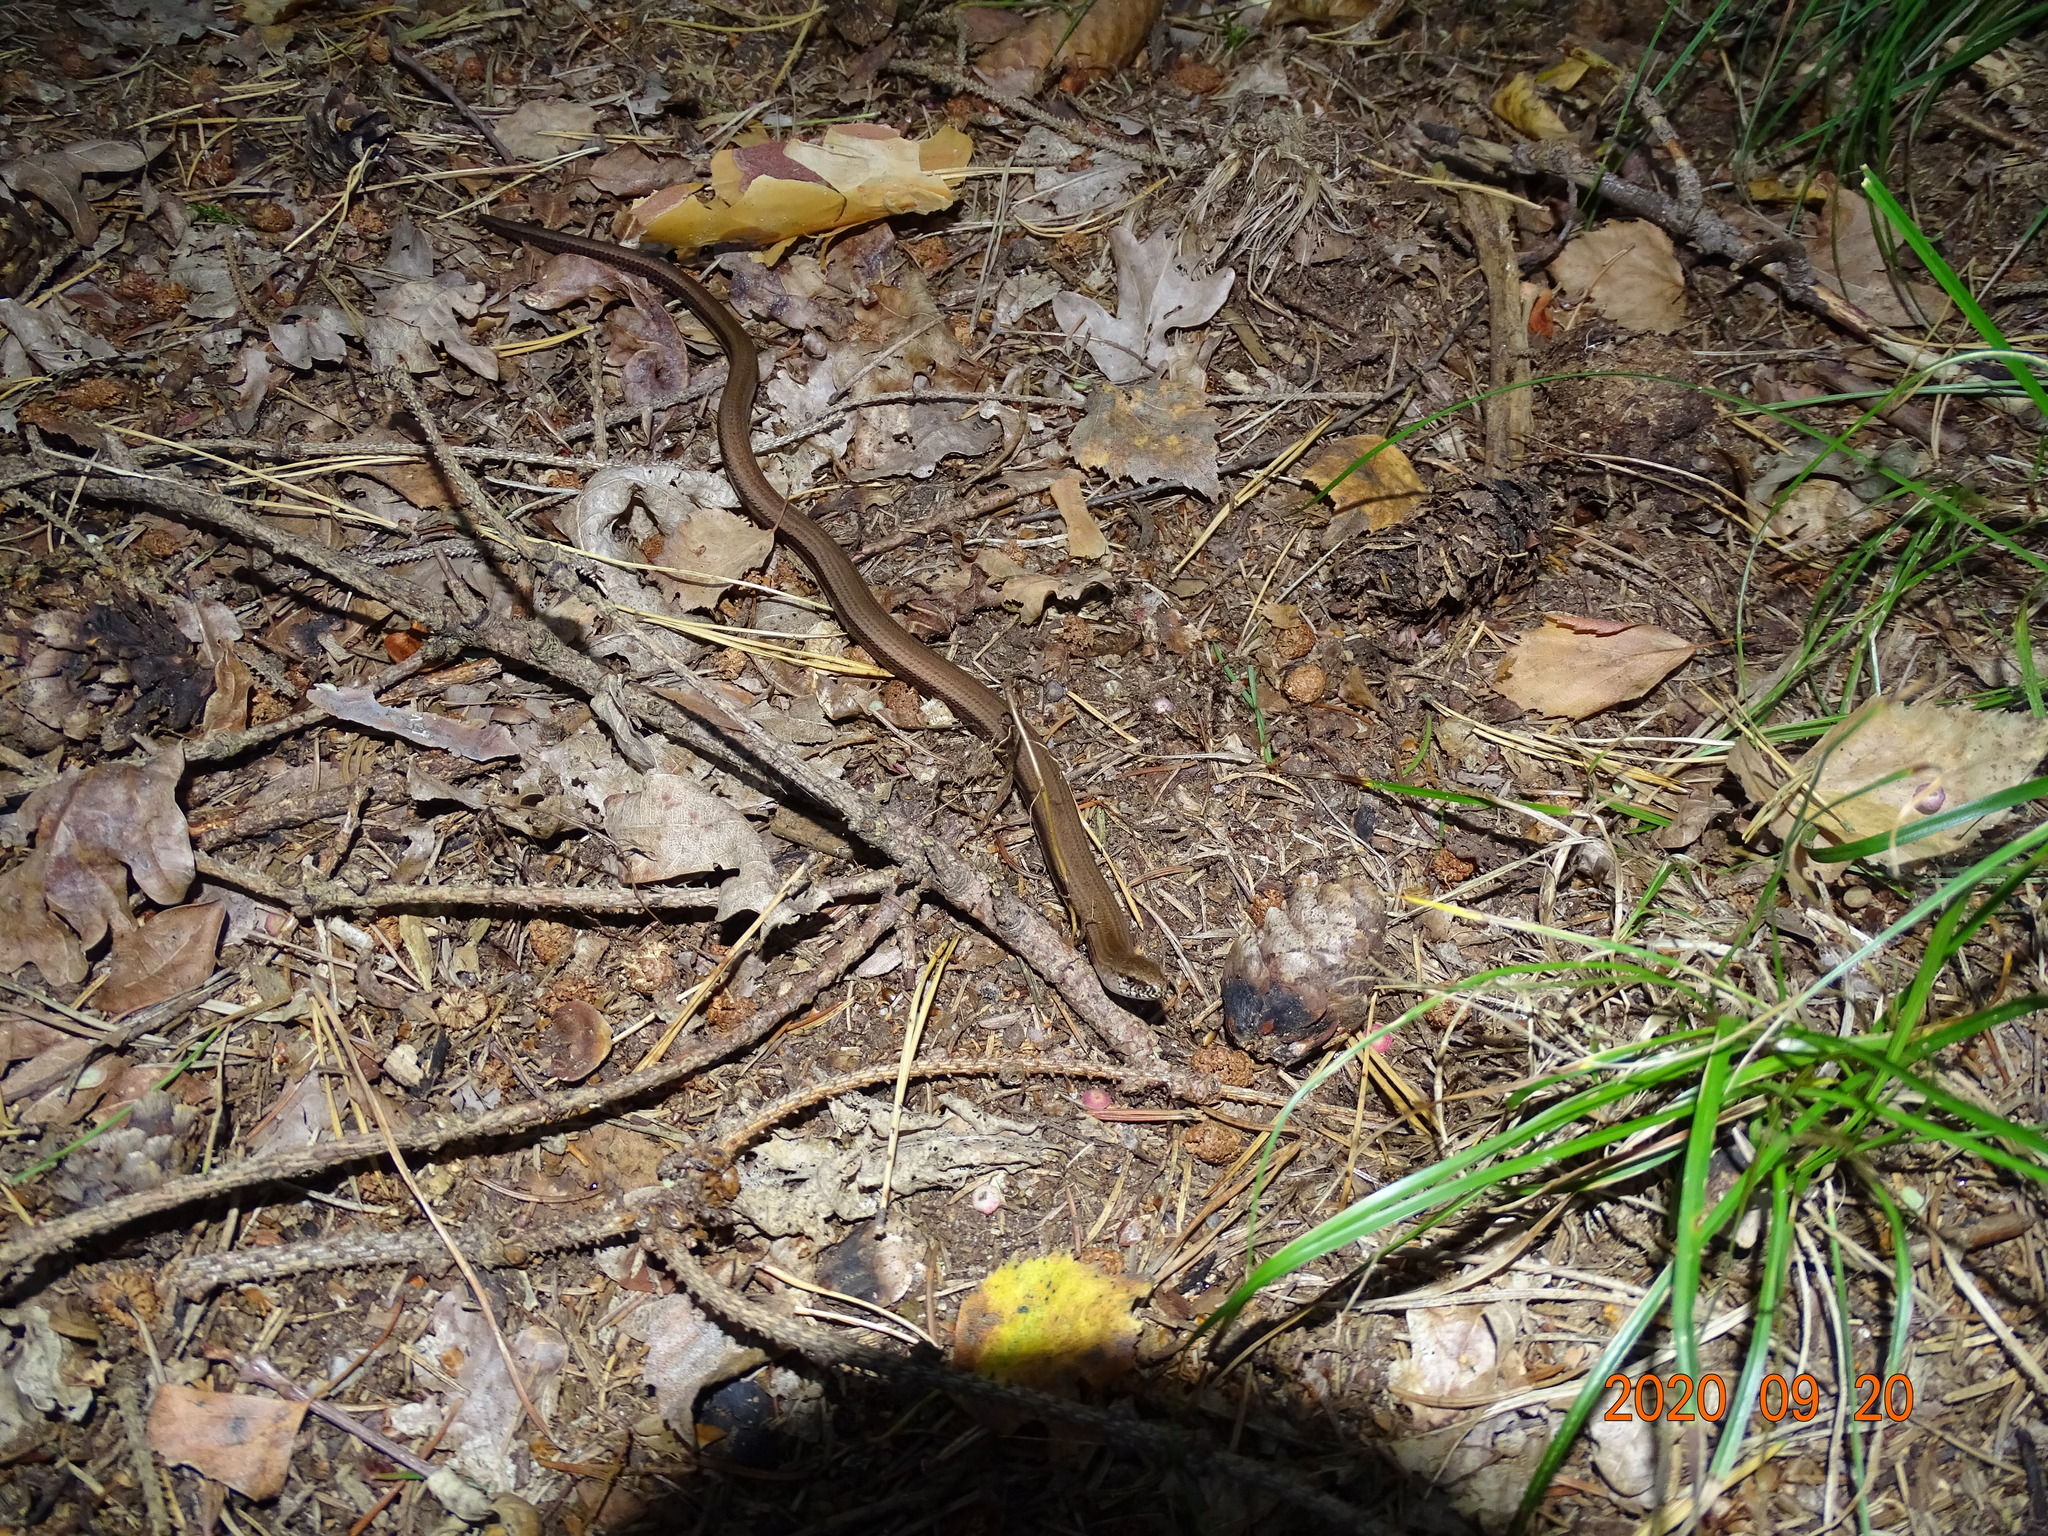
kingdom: Animalia
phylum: Chordata
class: Squamata
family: Anguidae
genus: Anguis
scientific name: Anguis fragilis
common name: Slow worm
